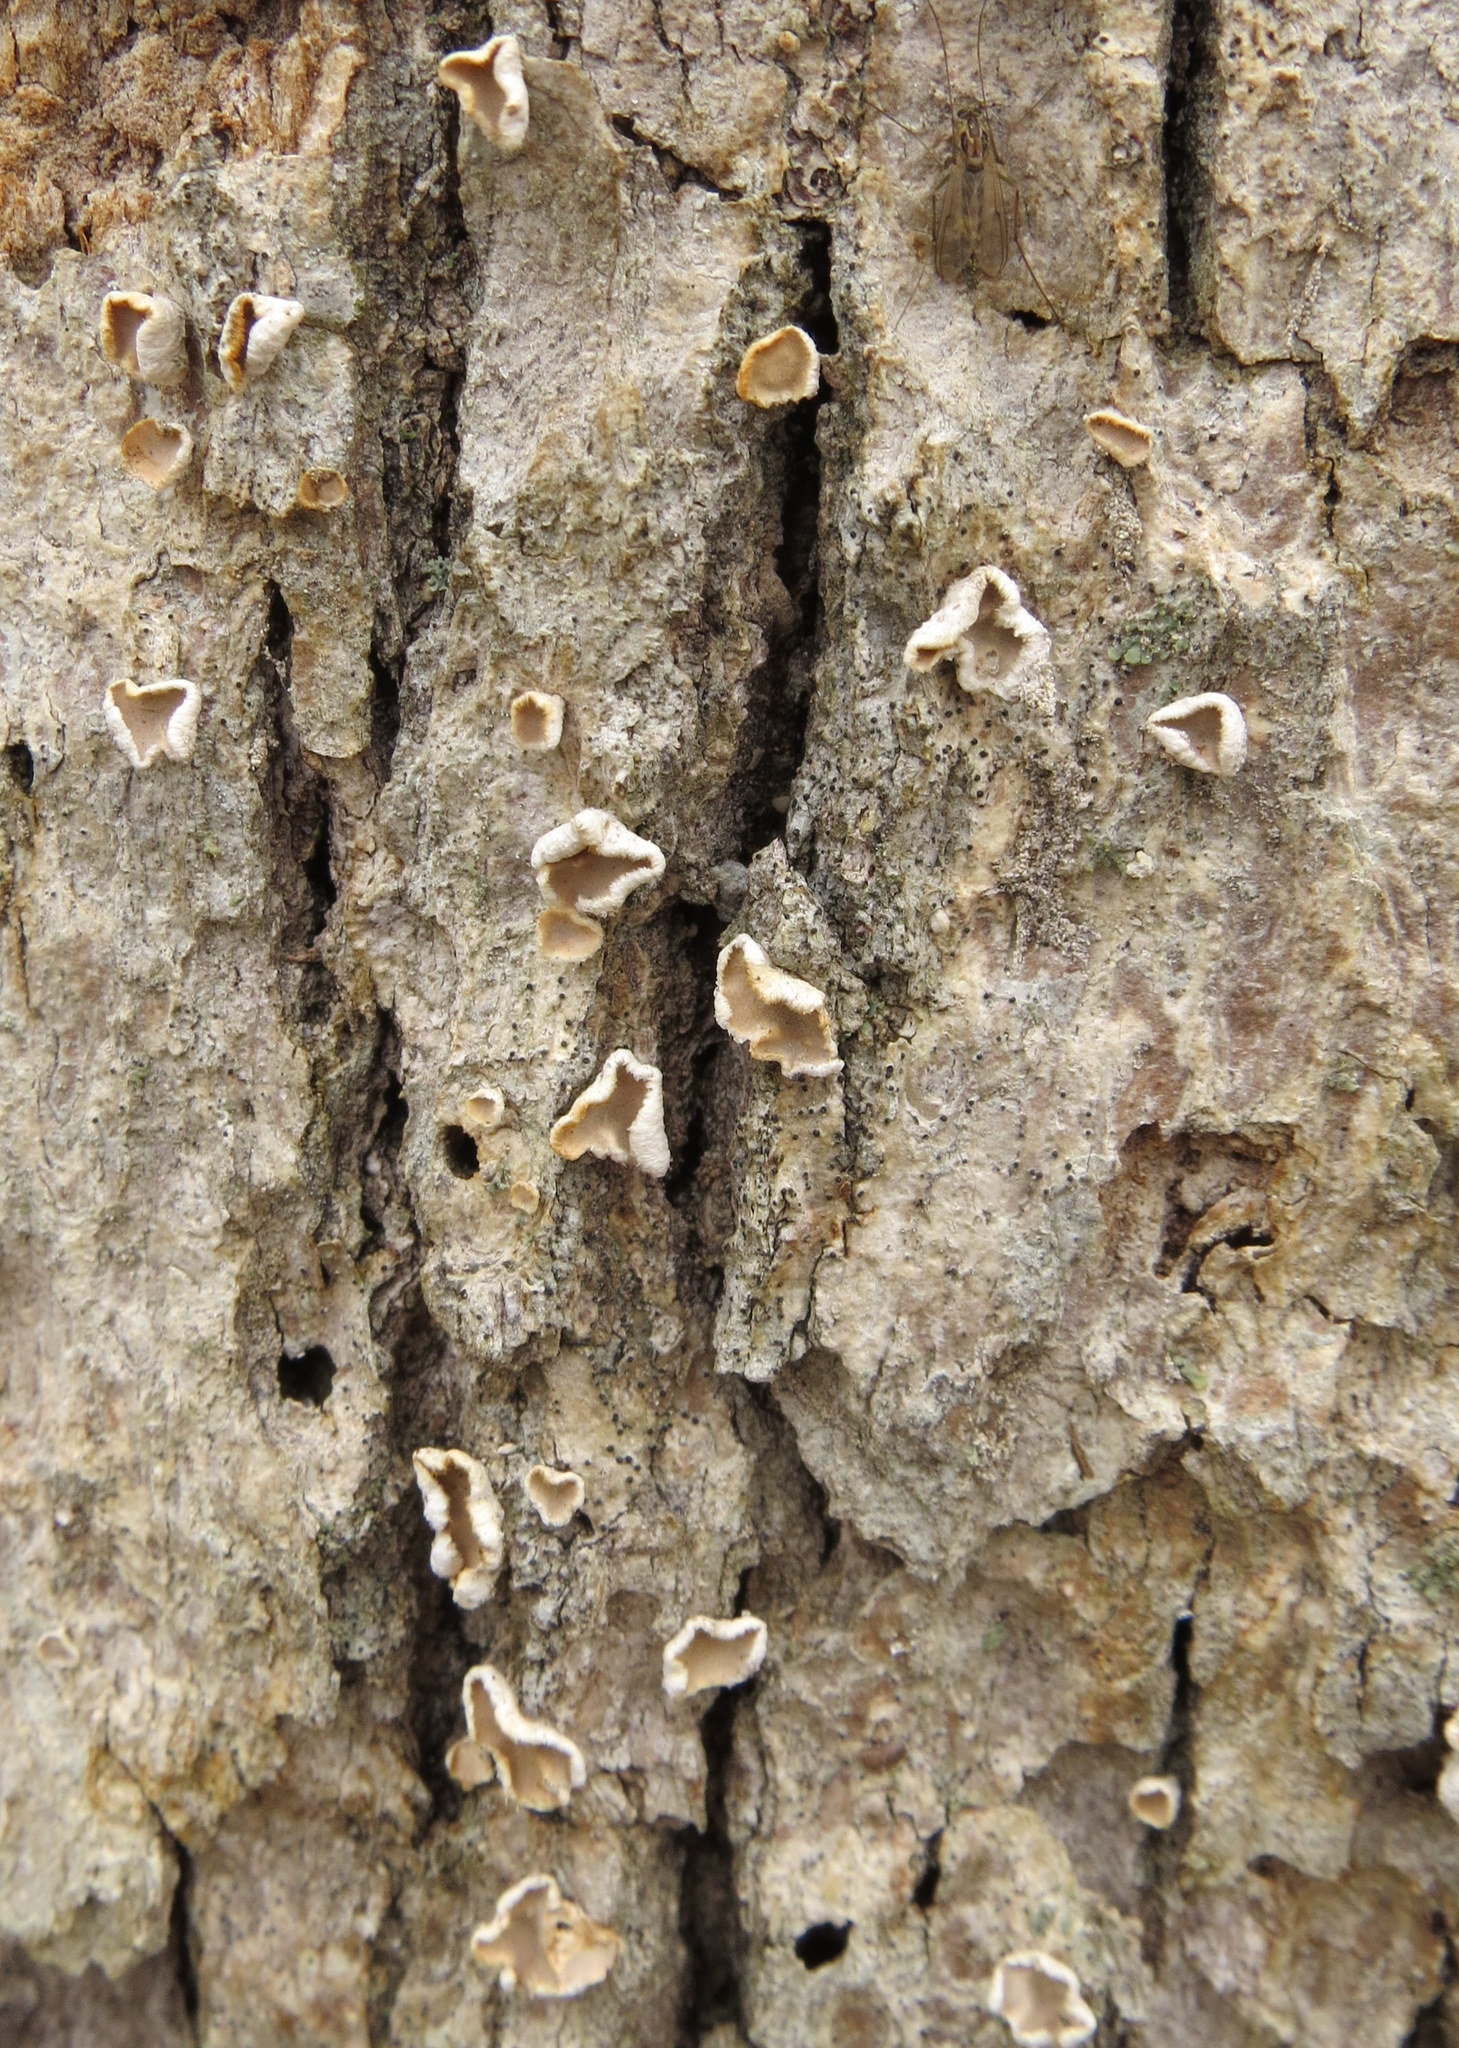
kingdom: Fungi
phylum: Basidiomycota
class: Agaricomycetes
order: Russulales
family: Stereaceae
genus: Acanthophysium
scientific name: Acanthophysium oakesii
